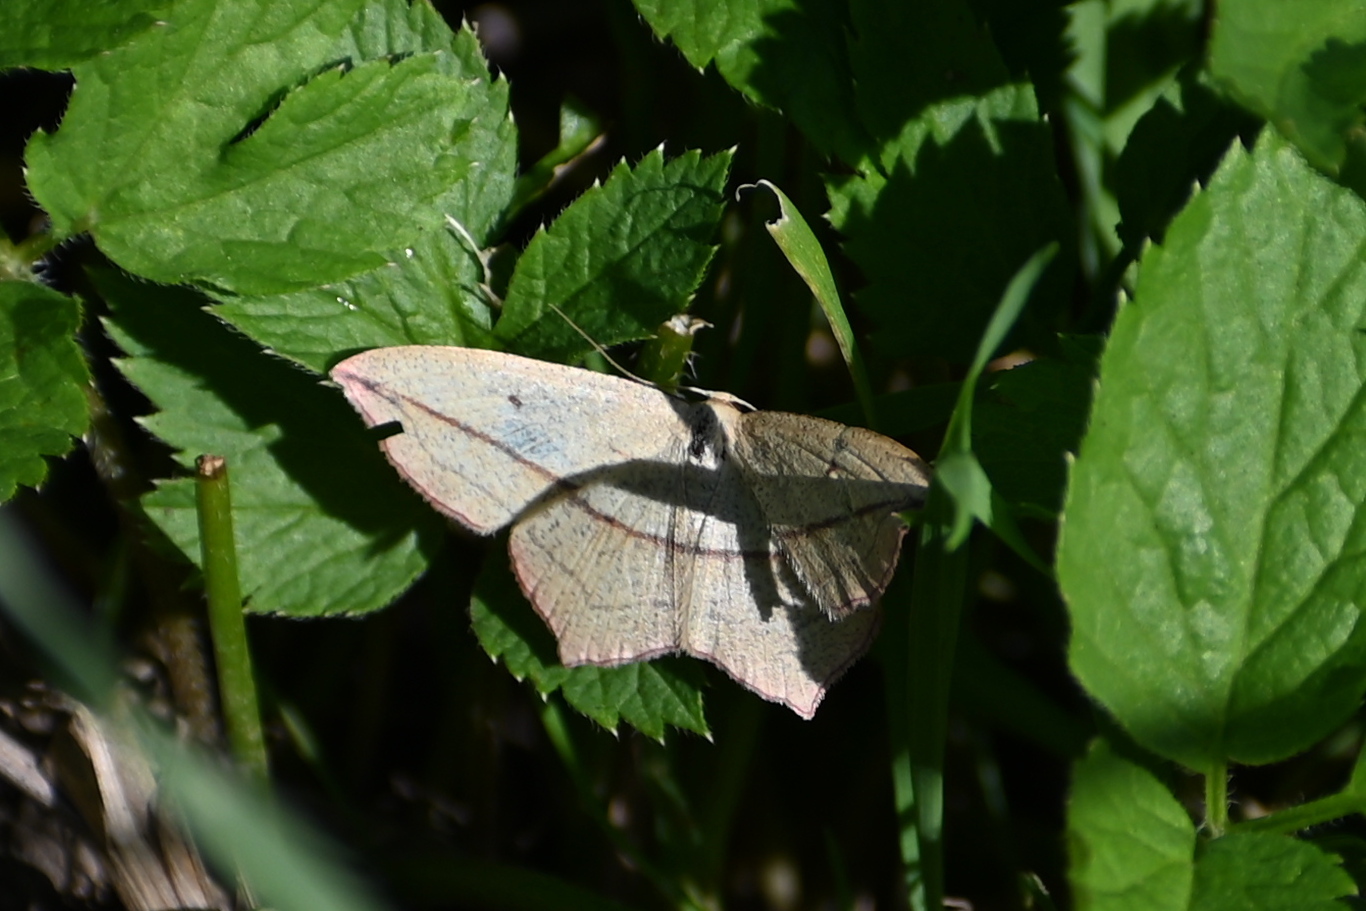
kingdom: Animalia
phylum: Arthropoda
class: Insecta
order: Lepidoptera
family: Geometridae
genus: Timandra
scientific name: Timandra comae
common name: Blood-vein
